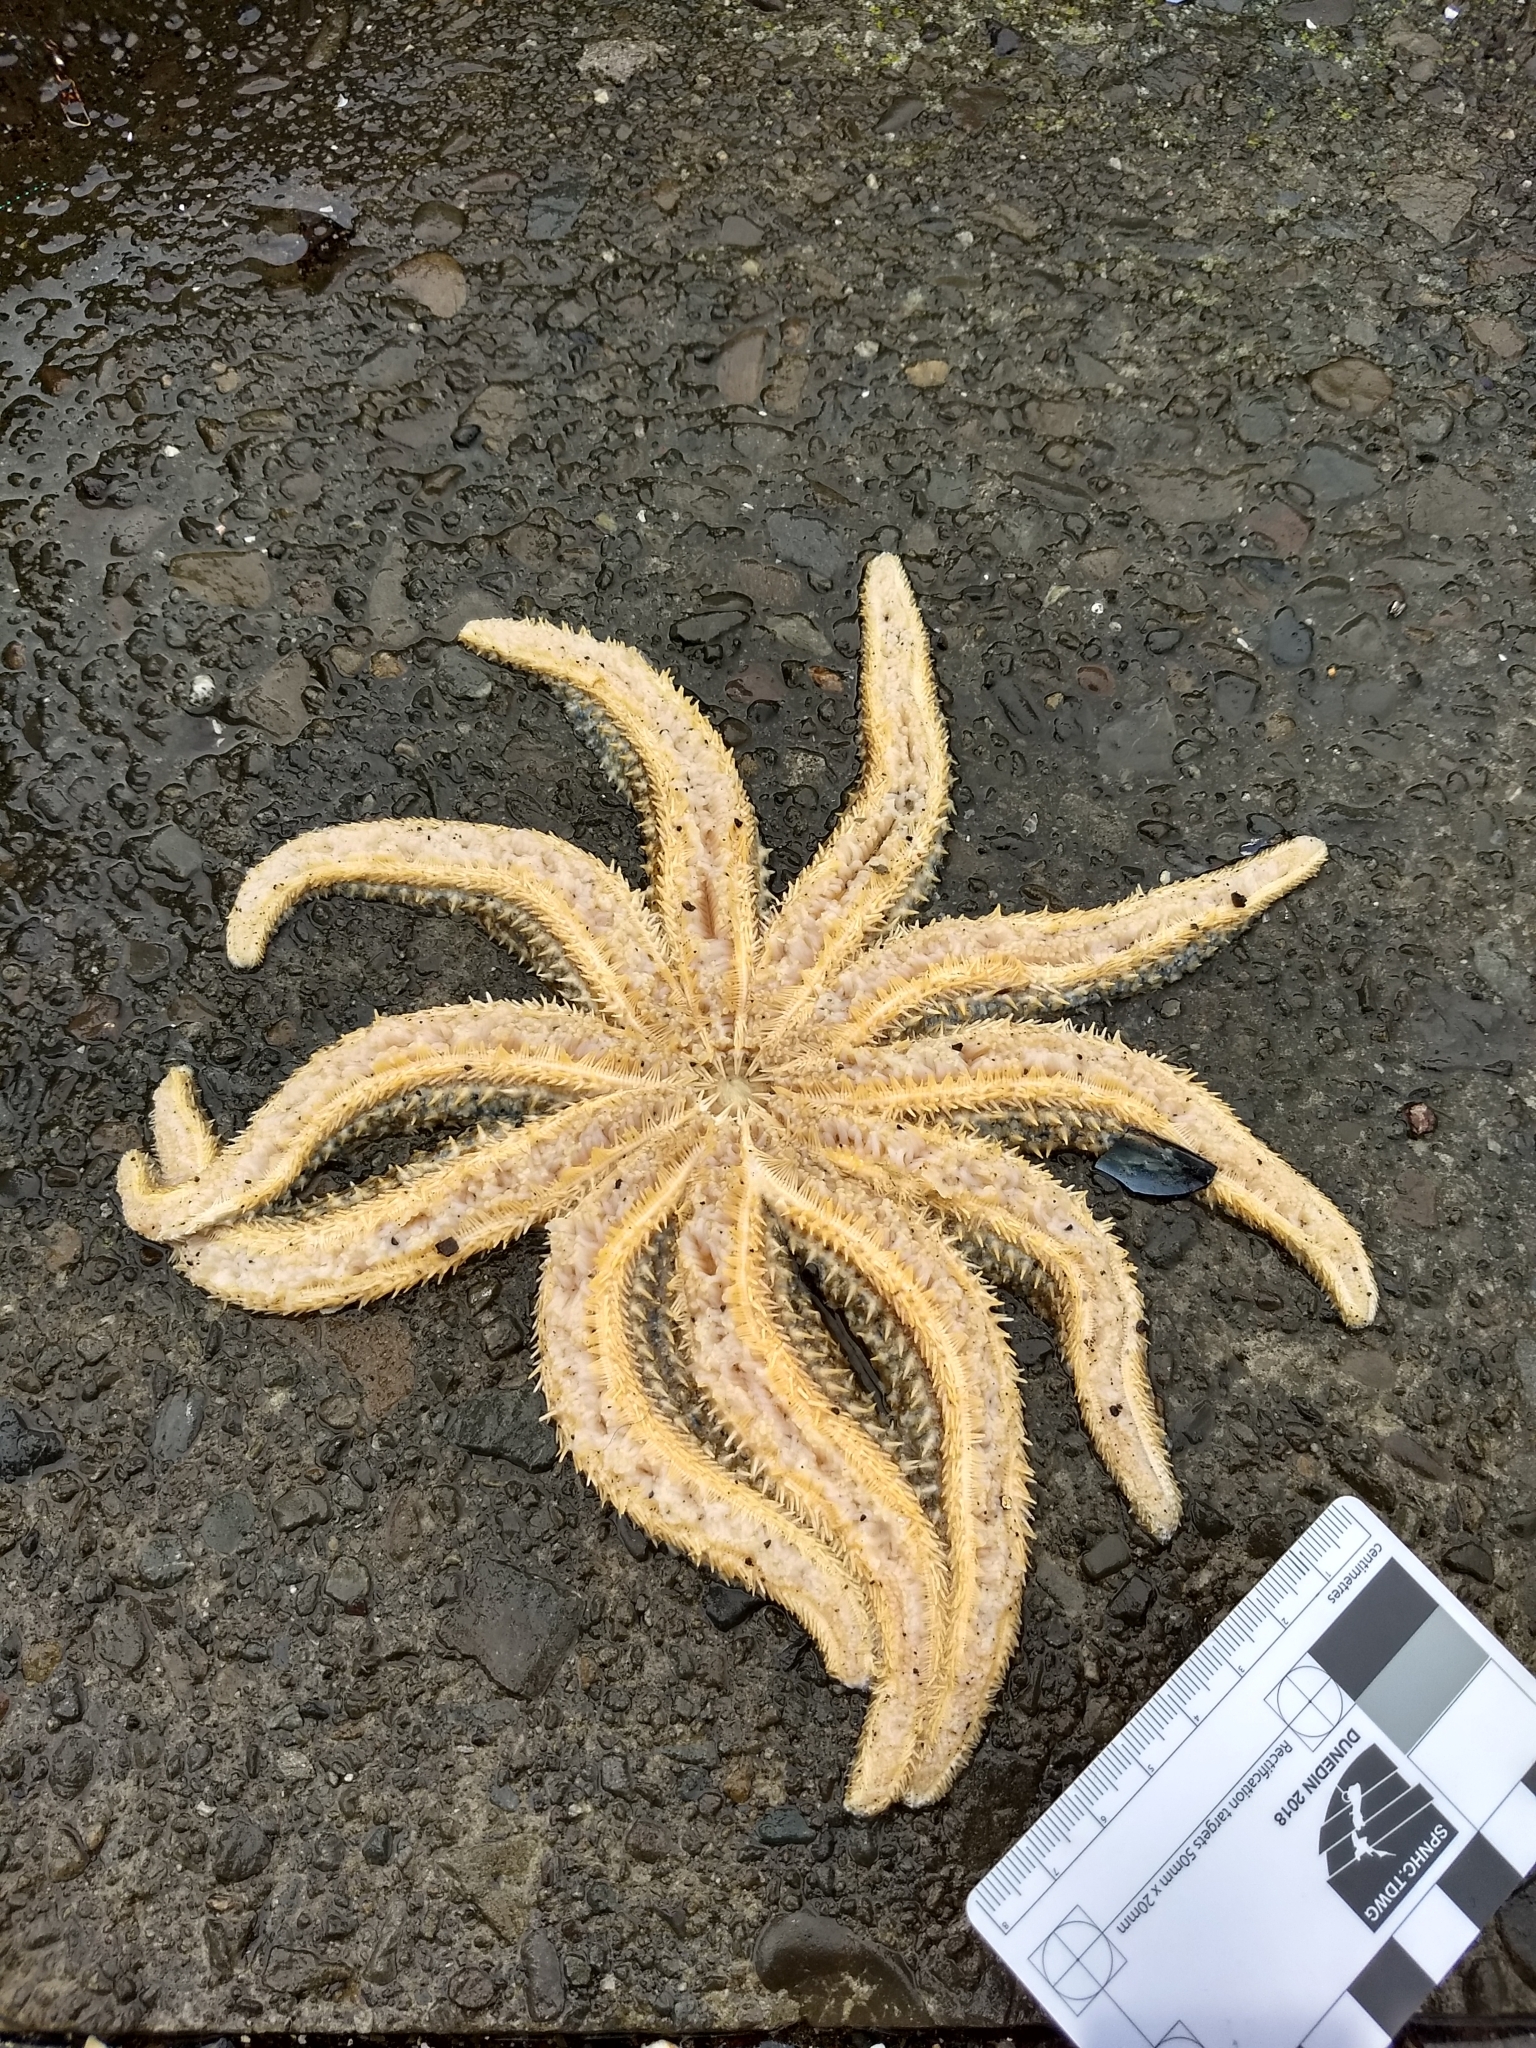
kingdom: Animalia
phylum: Echinodermata
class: Asteroidea
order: Forcipulatida
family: Asteriidae
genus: Coscinasterias
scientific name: Coscinasterias muricata
